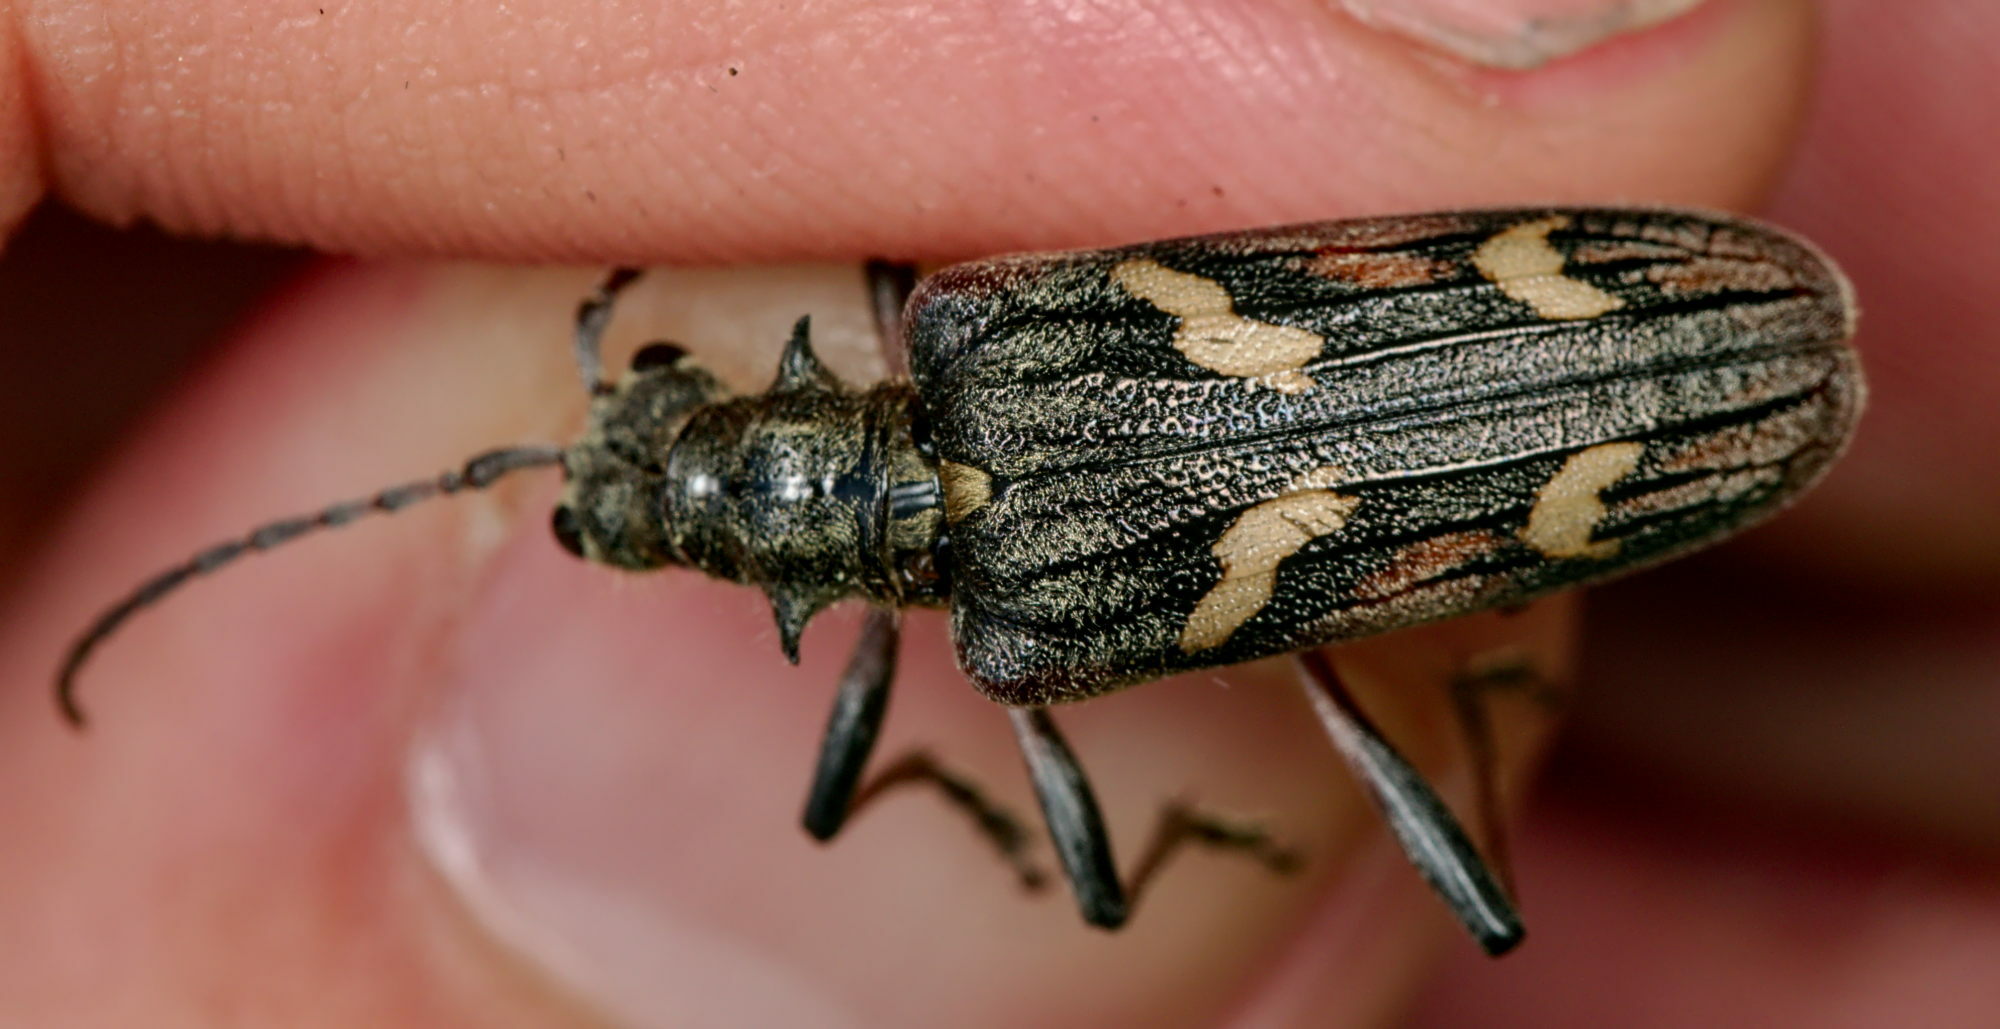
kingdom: Animalia
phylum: Arthropoda
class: Insecta
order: Coleoptera
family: Cerambycidae
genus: Rhagium
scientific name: Rhagium bifasciatum
